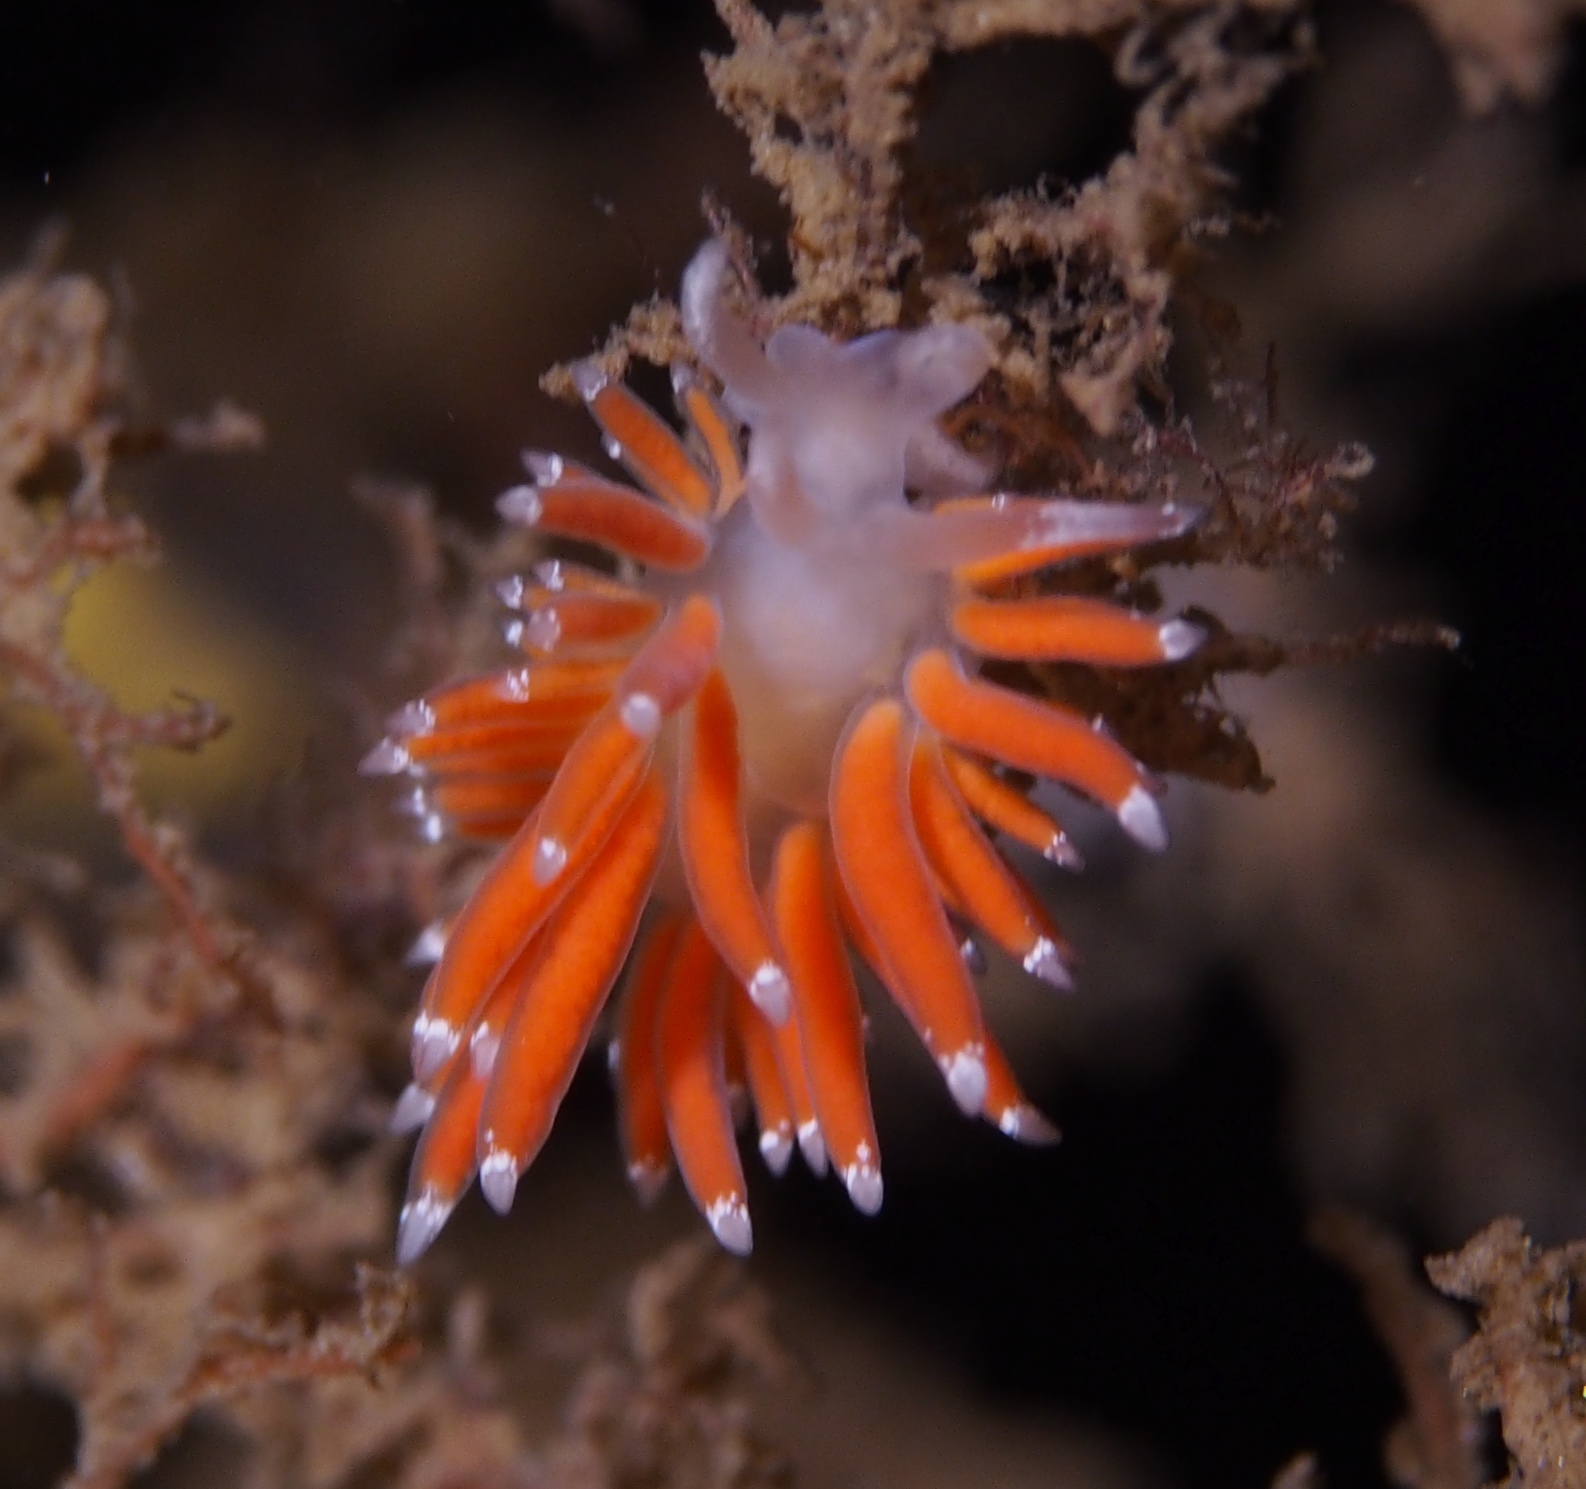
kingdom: Animalia
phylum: Mollusca
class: Gastropoda
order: Nudibranchia
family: Coryphellidae
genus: Coryphella
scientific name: Coryphella gracilis
